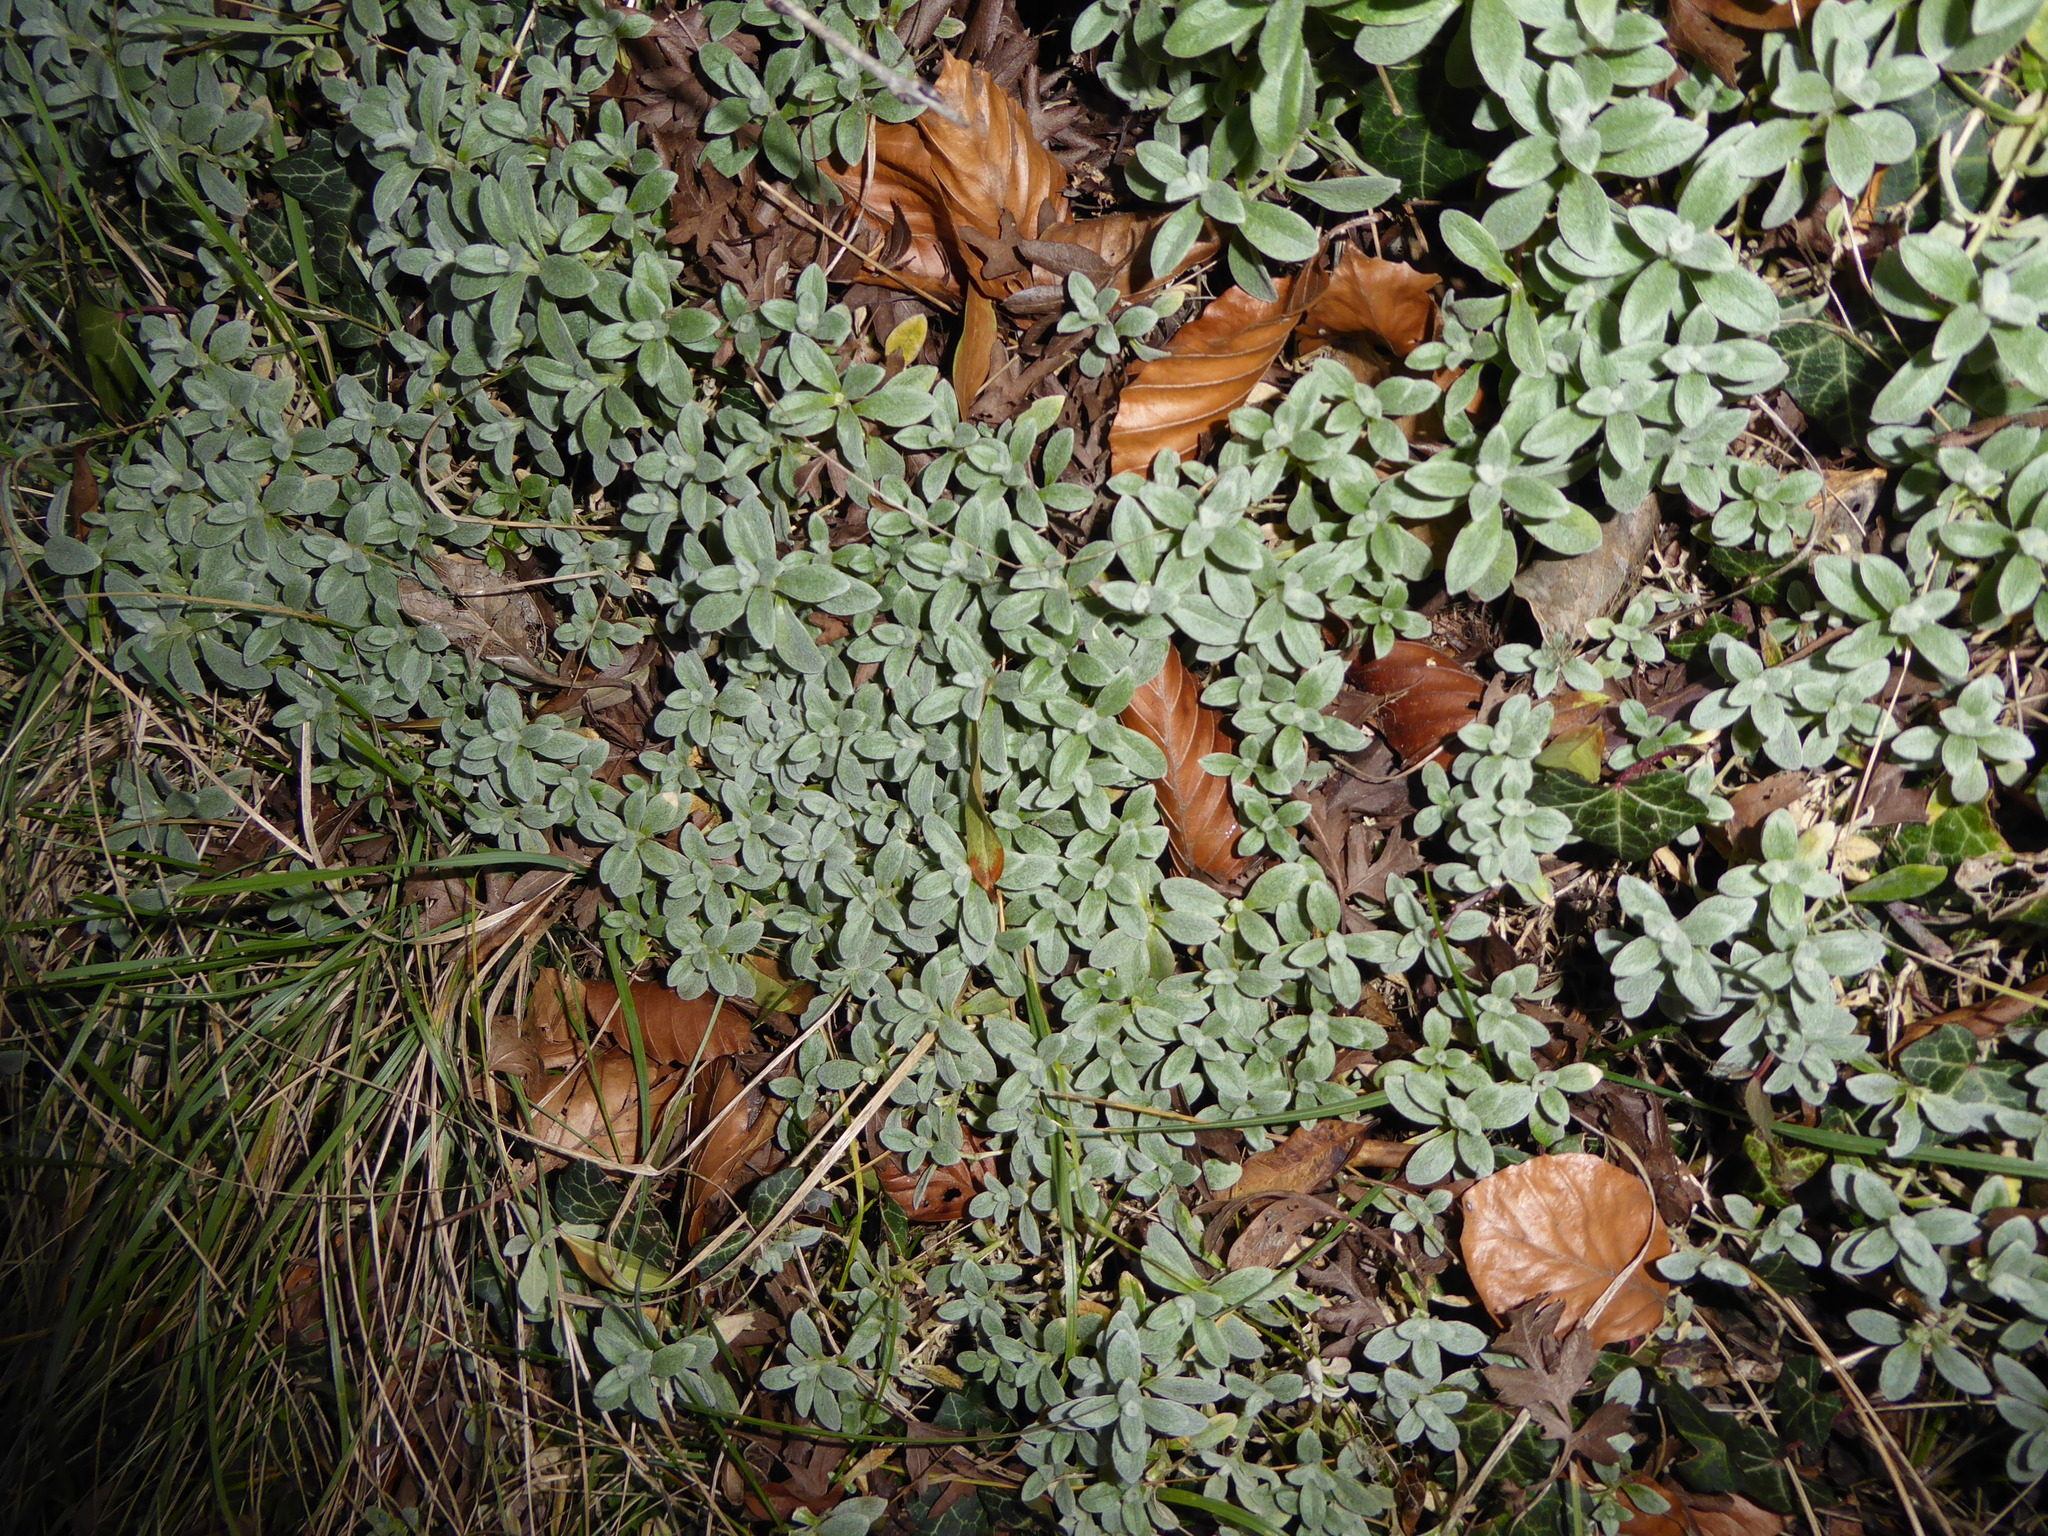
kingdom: Plantae
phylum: Tracheophyta
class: Magnoliopsida
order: Caryophyllales
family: Caryophyllaceae
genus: Cerastium
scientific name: Cerastium tomentosum
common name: Snow-in-summer
